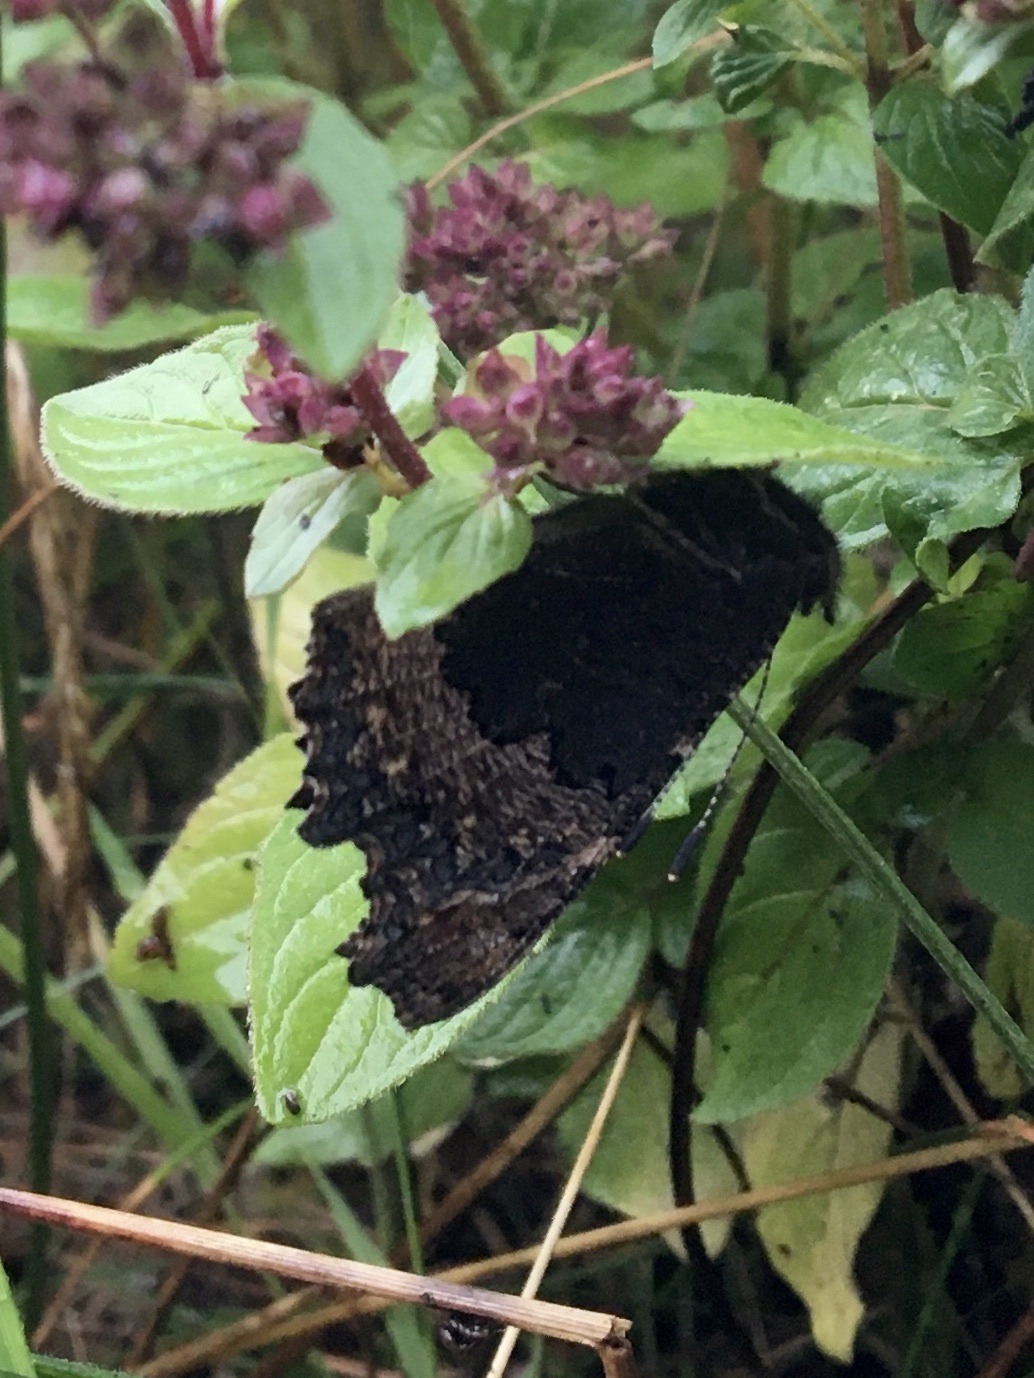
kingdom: Animalia
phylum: Arthropoda
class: Insecta
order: Lepidoptera
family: Nymphalidae
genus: Aglais
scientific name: Aglais io
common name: Peacock
